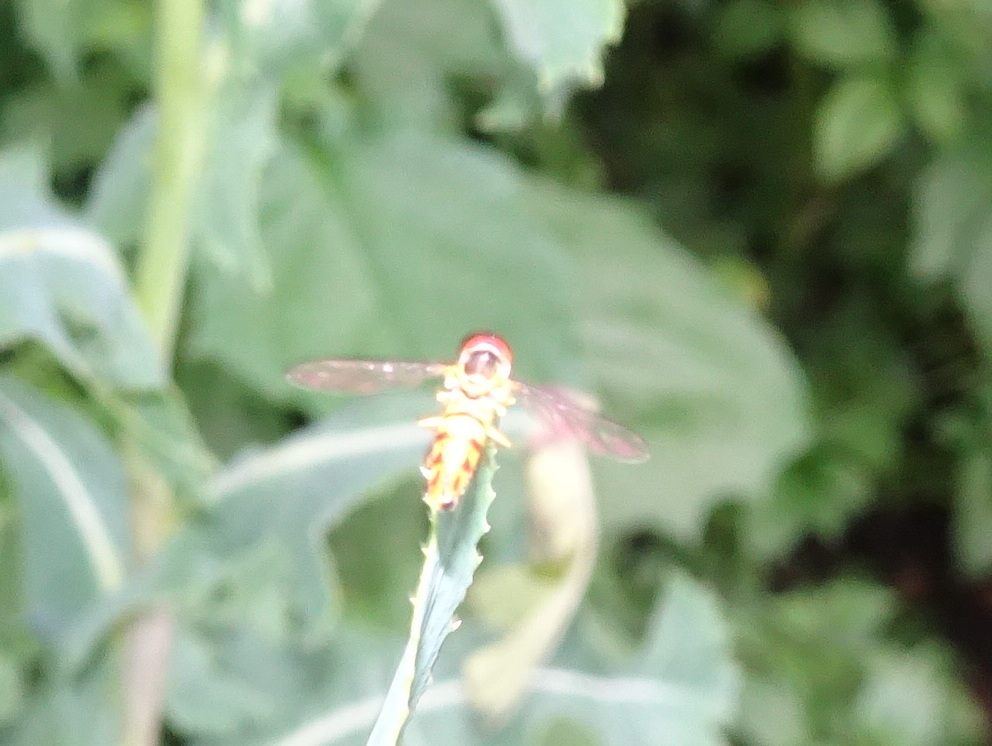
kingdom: Animalia
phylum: Arthropoda
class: Insecta
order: Diptera
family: Syrphidae
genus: Toxomerus
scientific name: Toxomerus geminatus
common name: Eastern calligrapher
